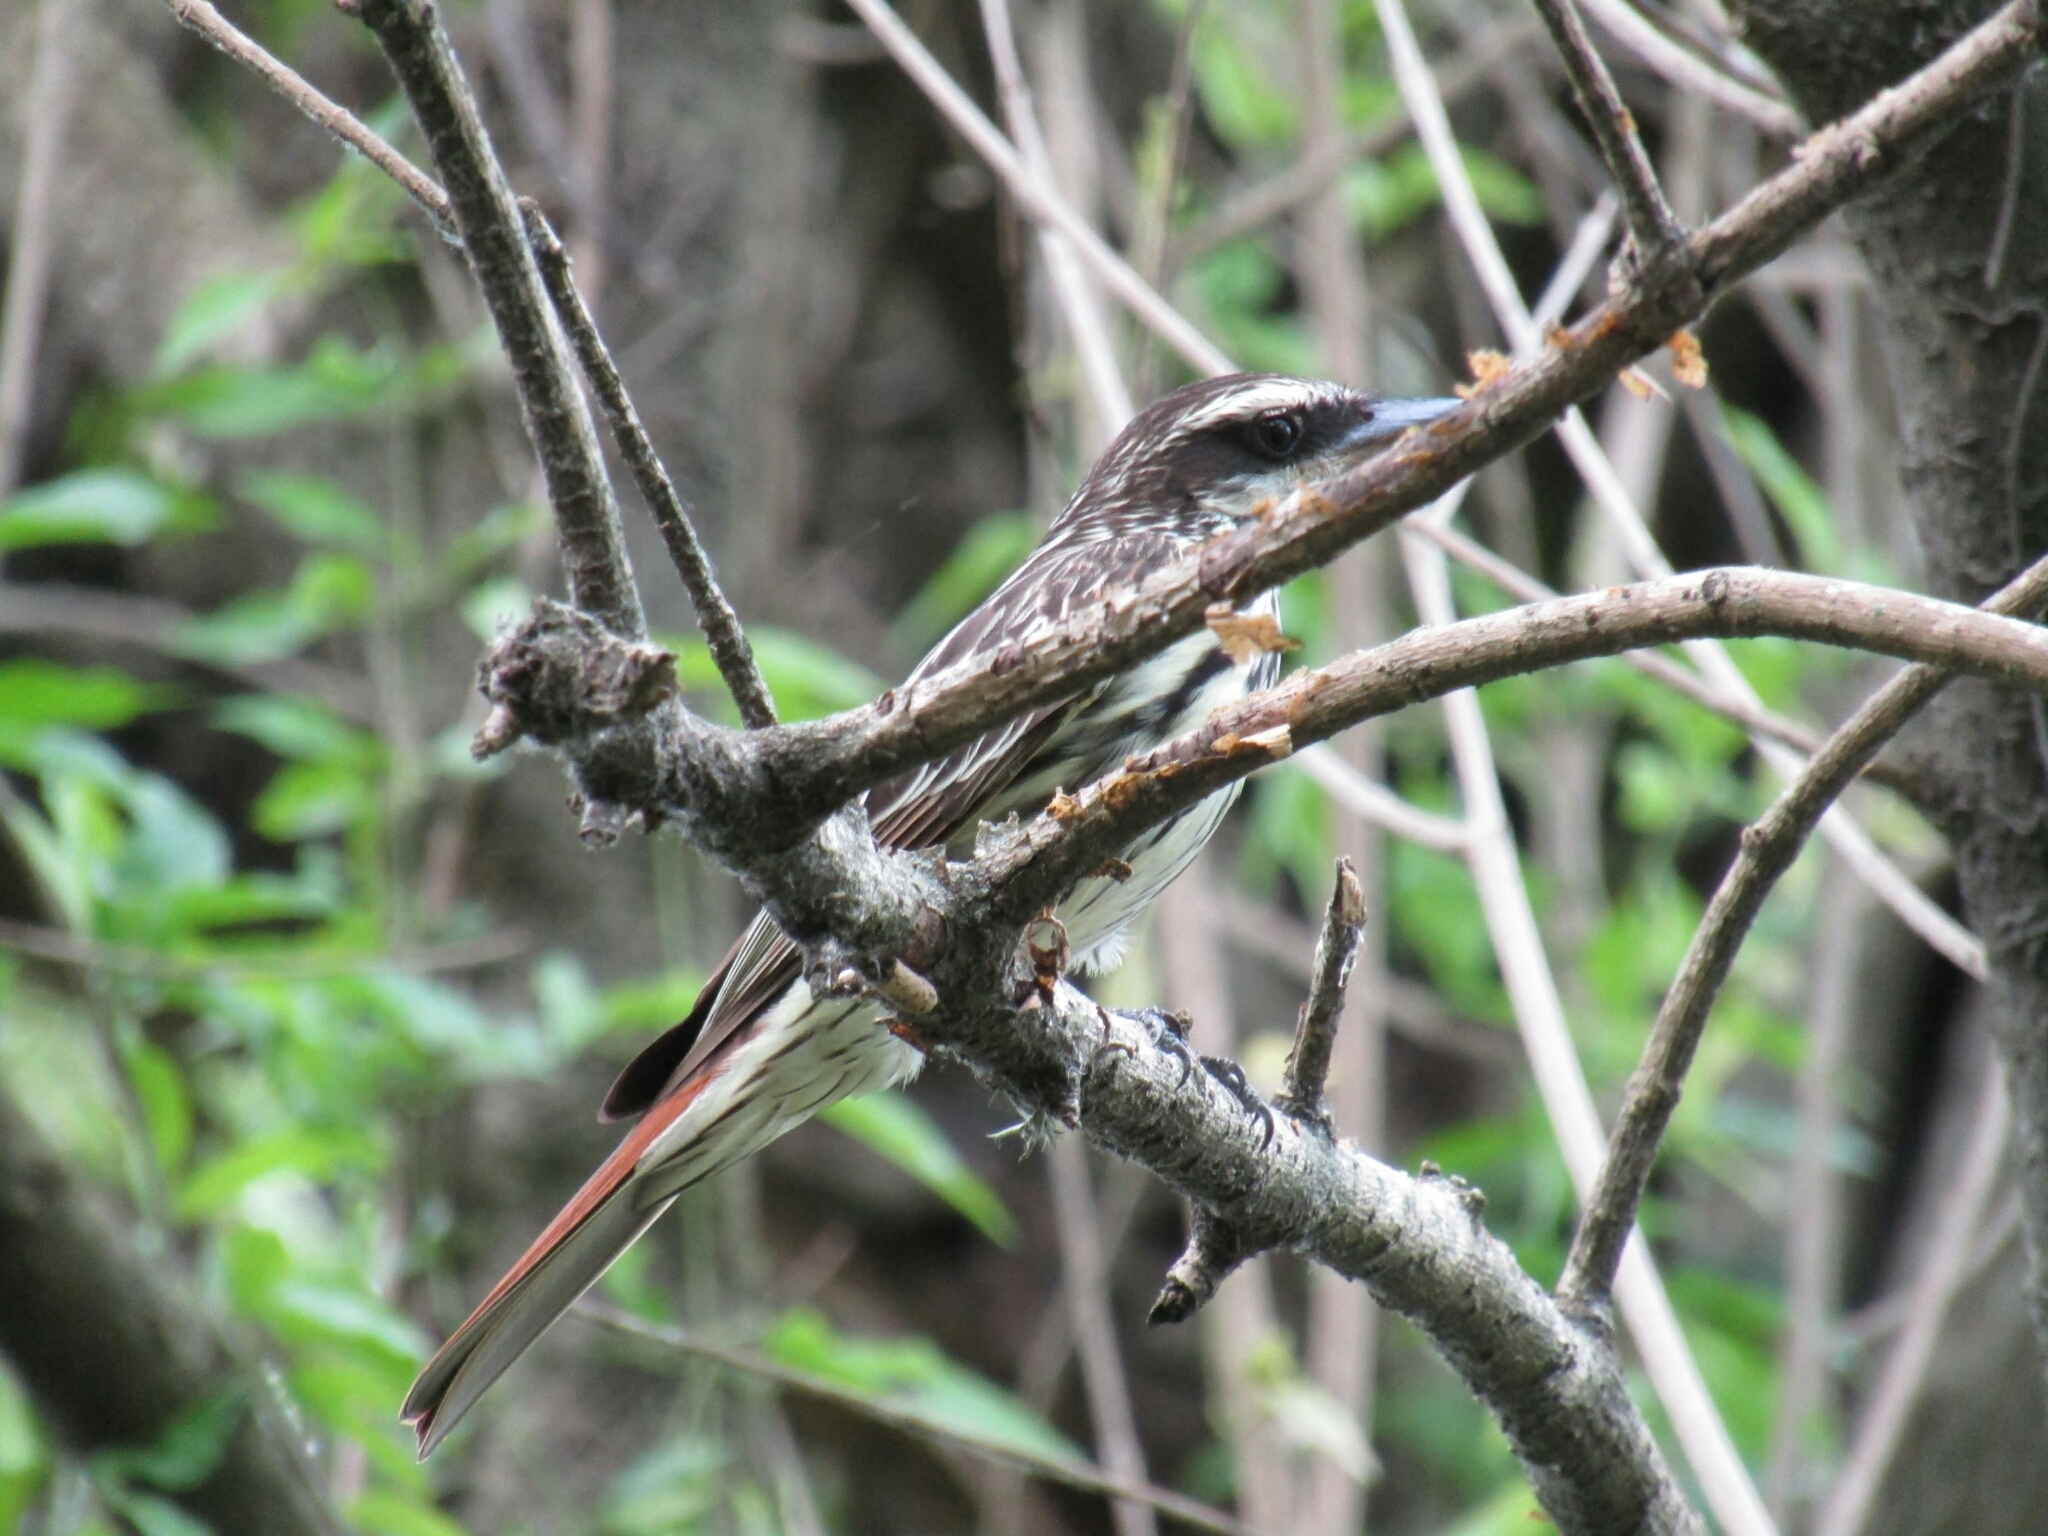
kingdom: Animalia
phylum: Chordata
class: Aves
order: Passeriformes
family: Tyrannidae
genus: Myiodynastes
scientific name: Myiodynastes maculatus
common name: Streaked flycatcher
